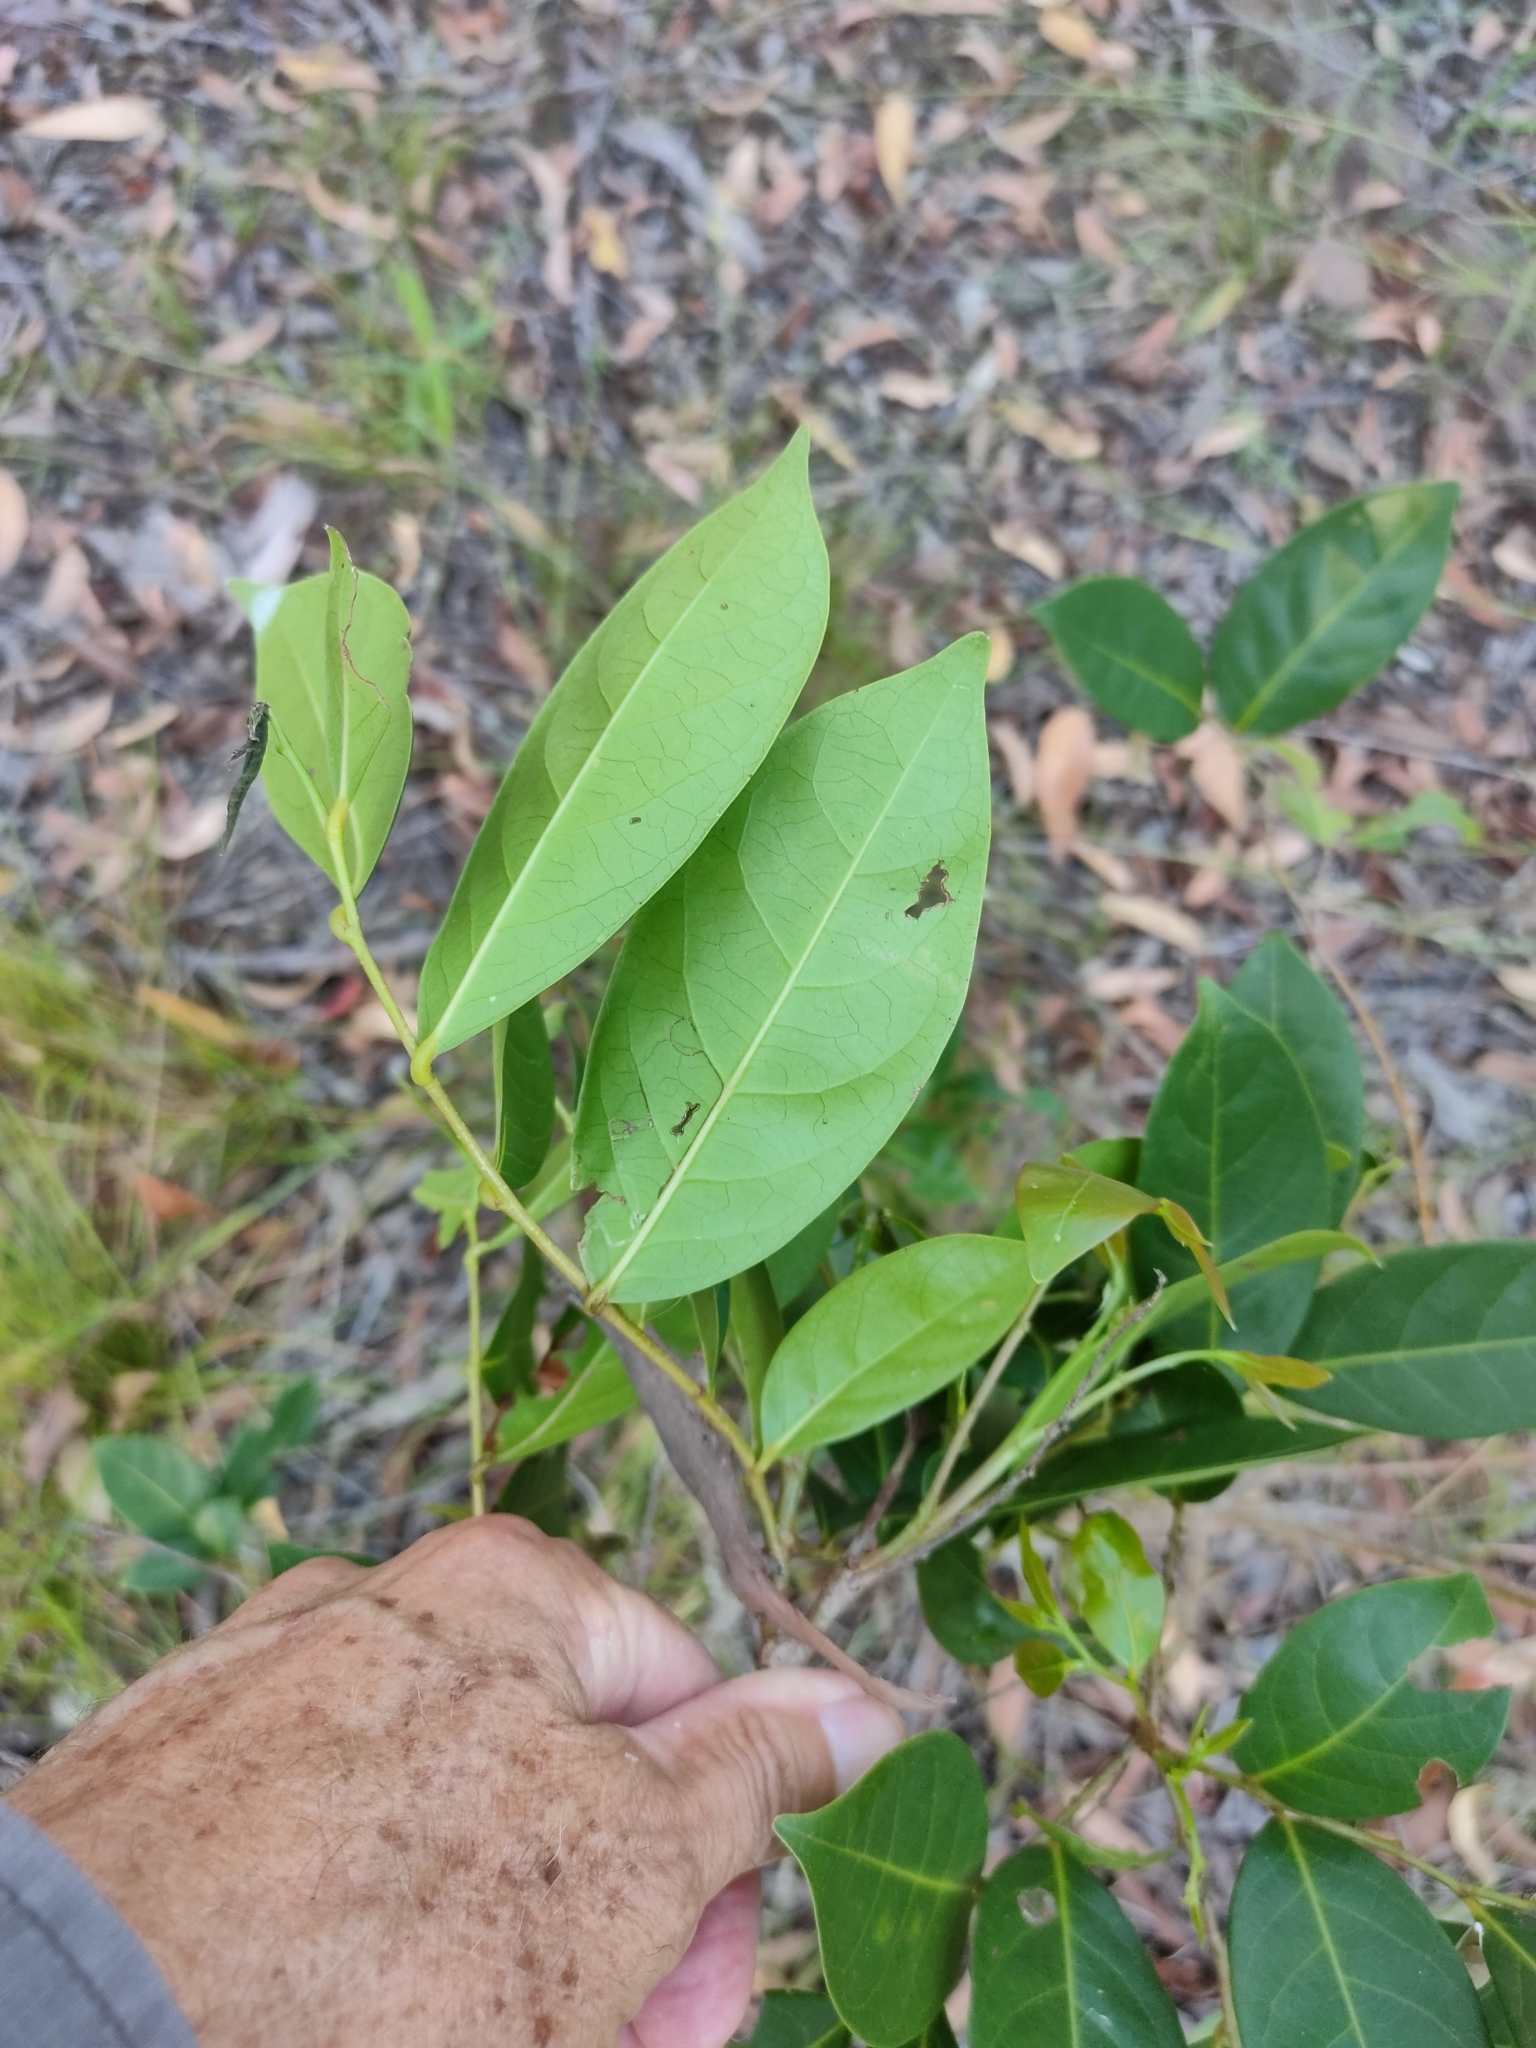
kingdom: Plantae
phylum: Tracheophyta
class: Magnoliopsida
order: Malpighiales
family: Phyllanthaceae
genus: Glochidion
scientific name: Glochidion ferdinandi
